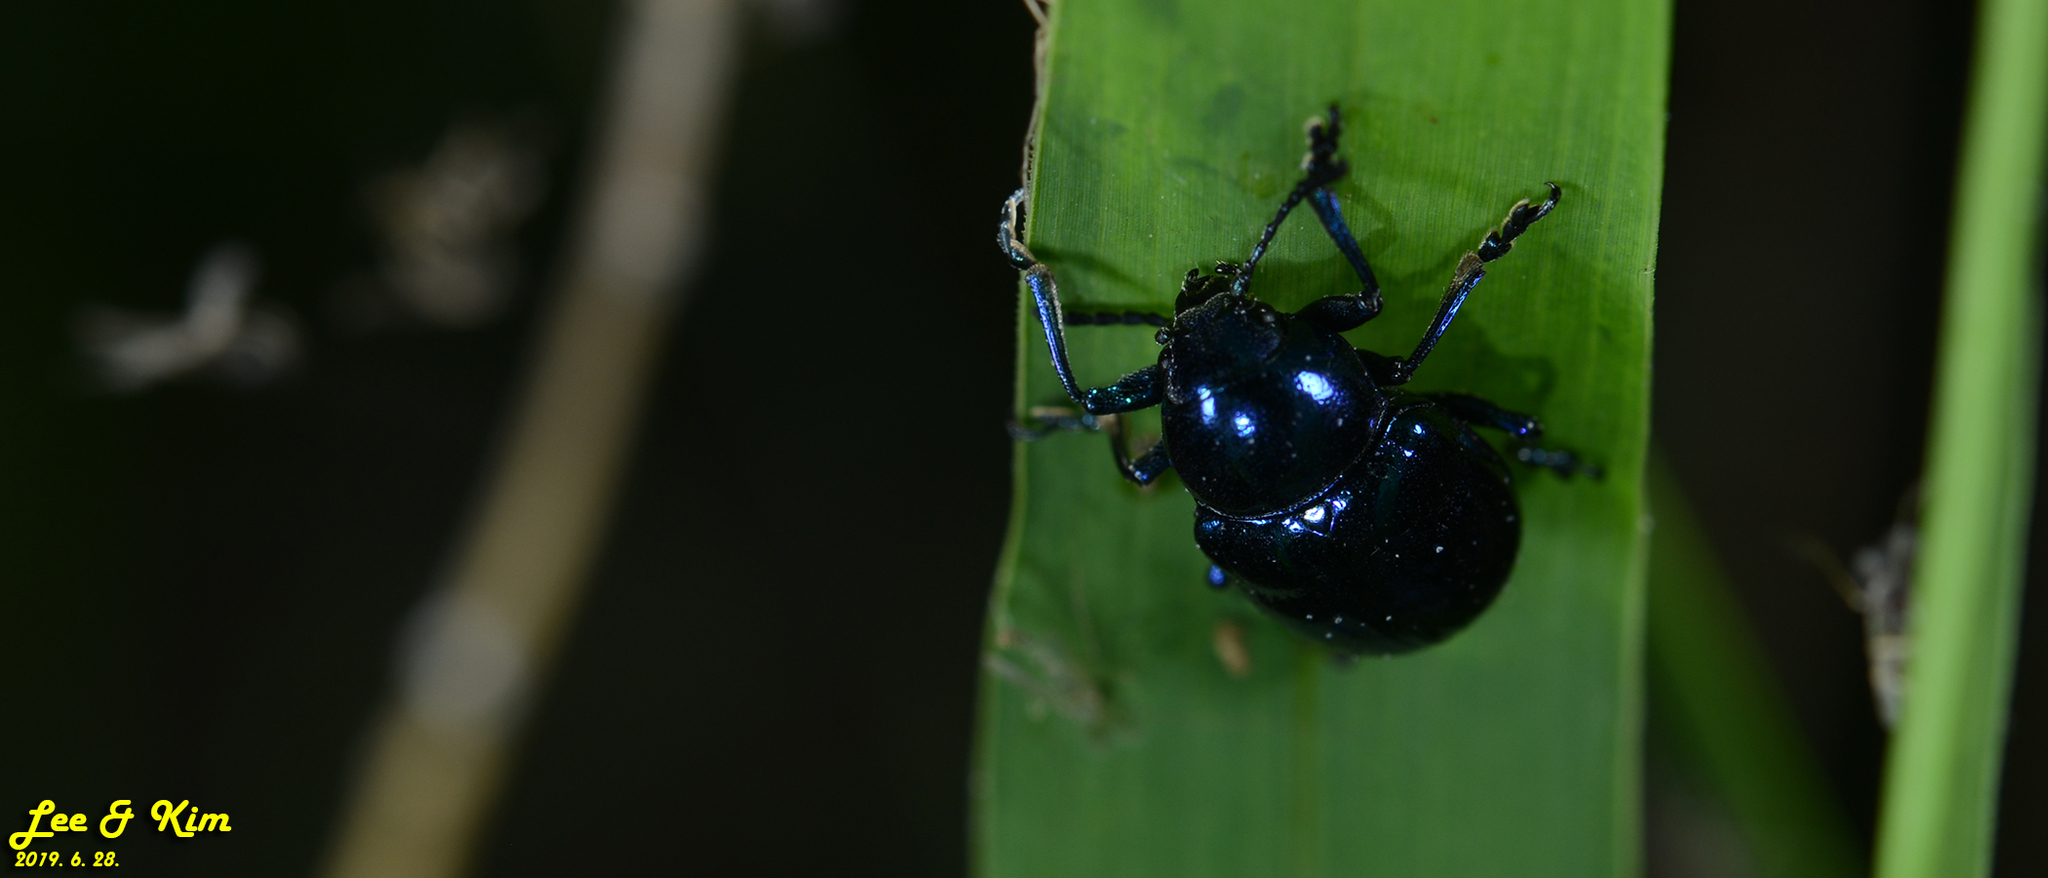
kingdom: Animalia
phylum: Arthropoda
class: Insecta
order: Coleoptera
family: Chrysomelidae
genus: Chrysochus
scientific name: Chrysochus chinensis
